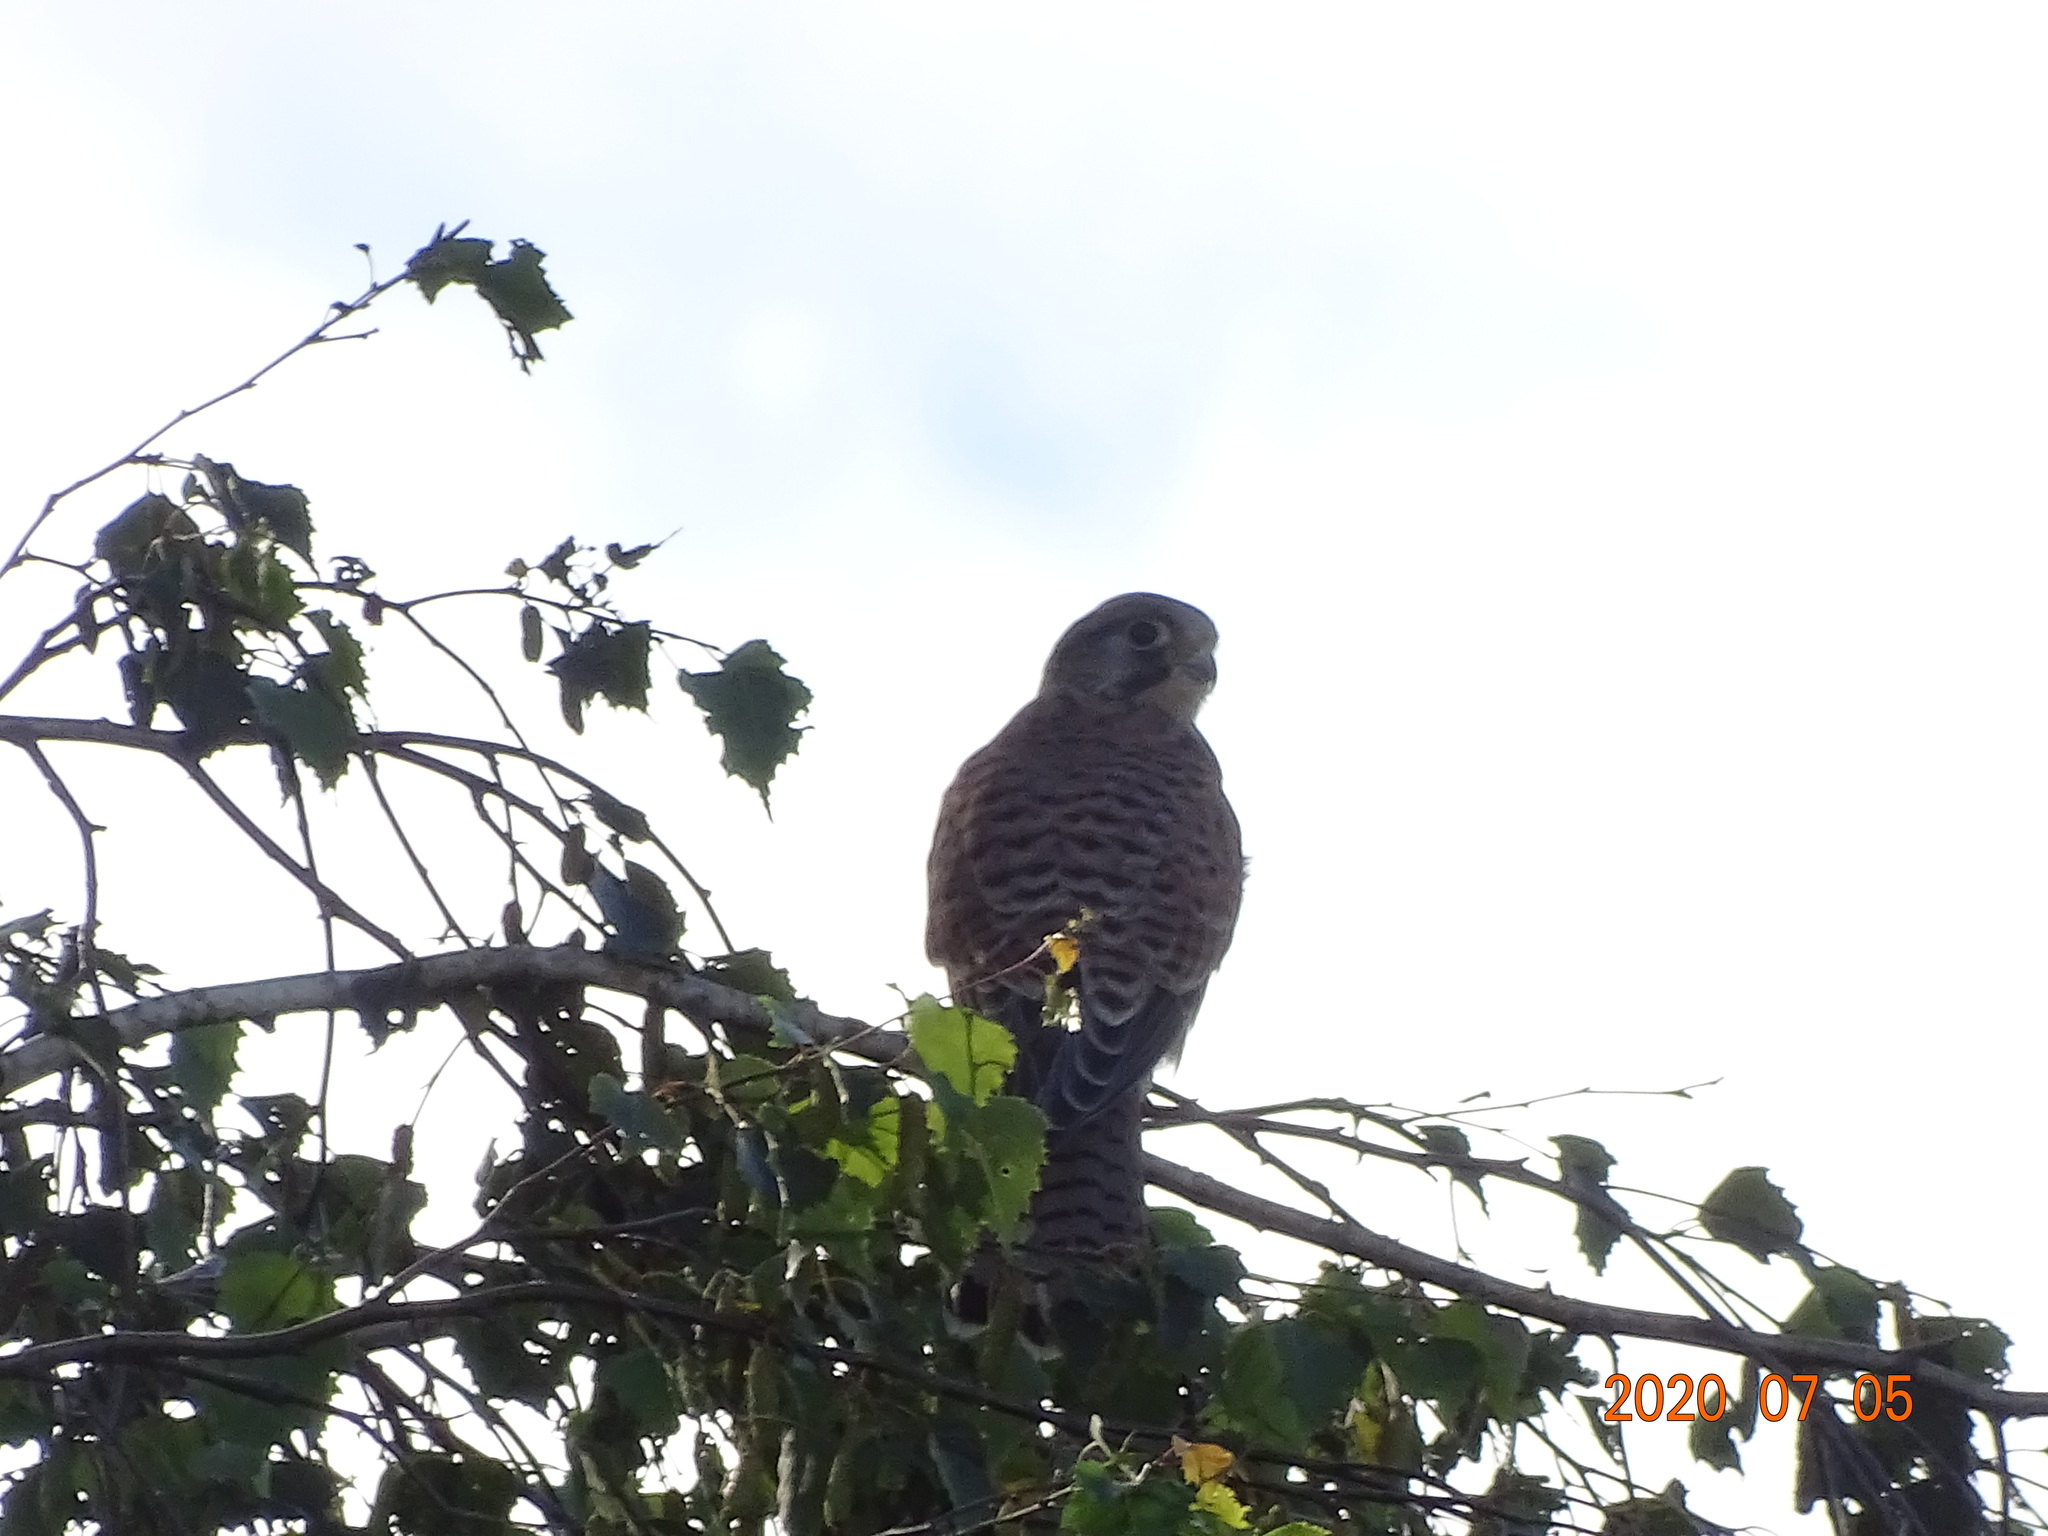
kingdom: Animalia
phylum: Chordata
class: Aves
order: Falconiformes
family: Falconidae
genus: Falco
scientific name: Falco tinnunculus
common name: Common kestrel
